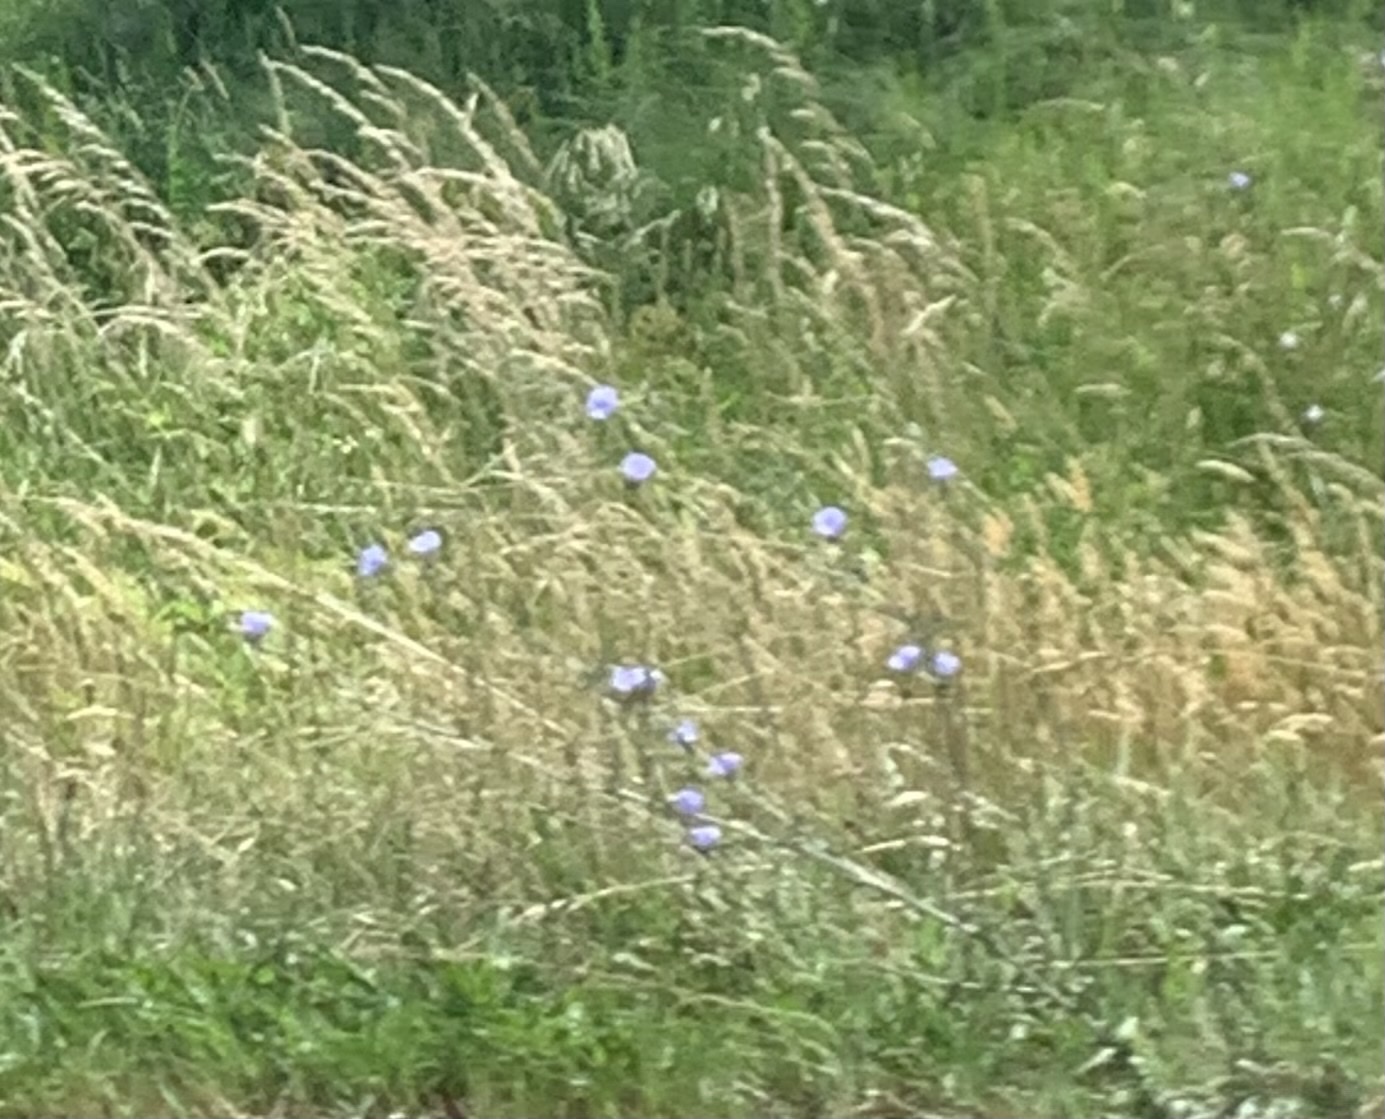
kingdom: Plantae
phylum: Tracheophyta
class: Magnoliopsida
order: Asterales
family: Asteraceae
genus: Cichorium
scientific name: Cichorium intybus
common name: Chicory
